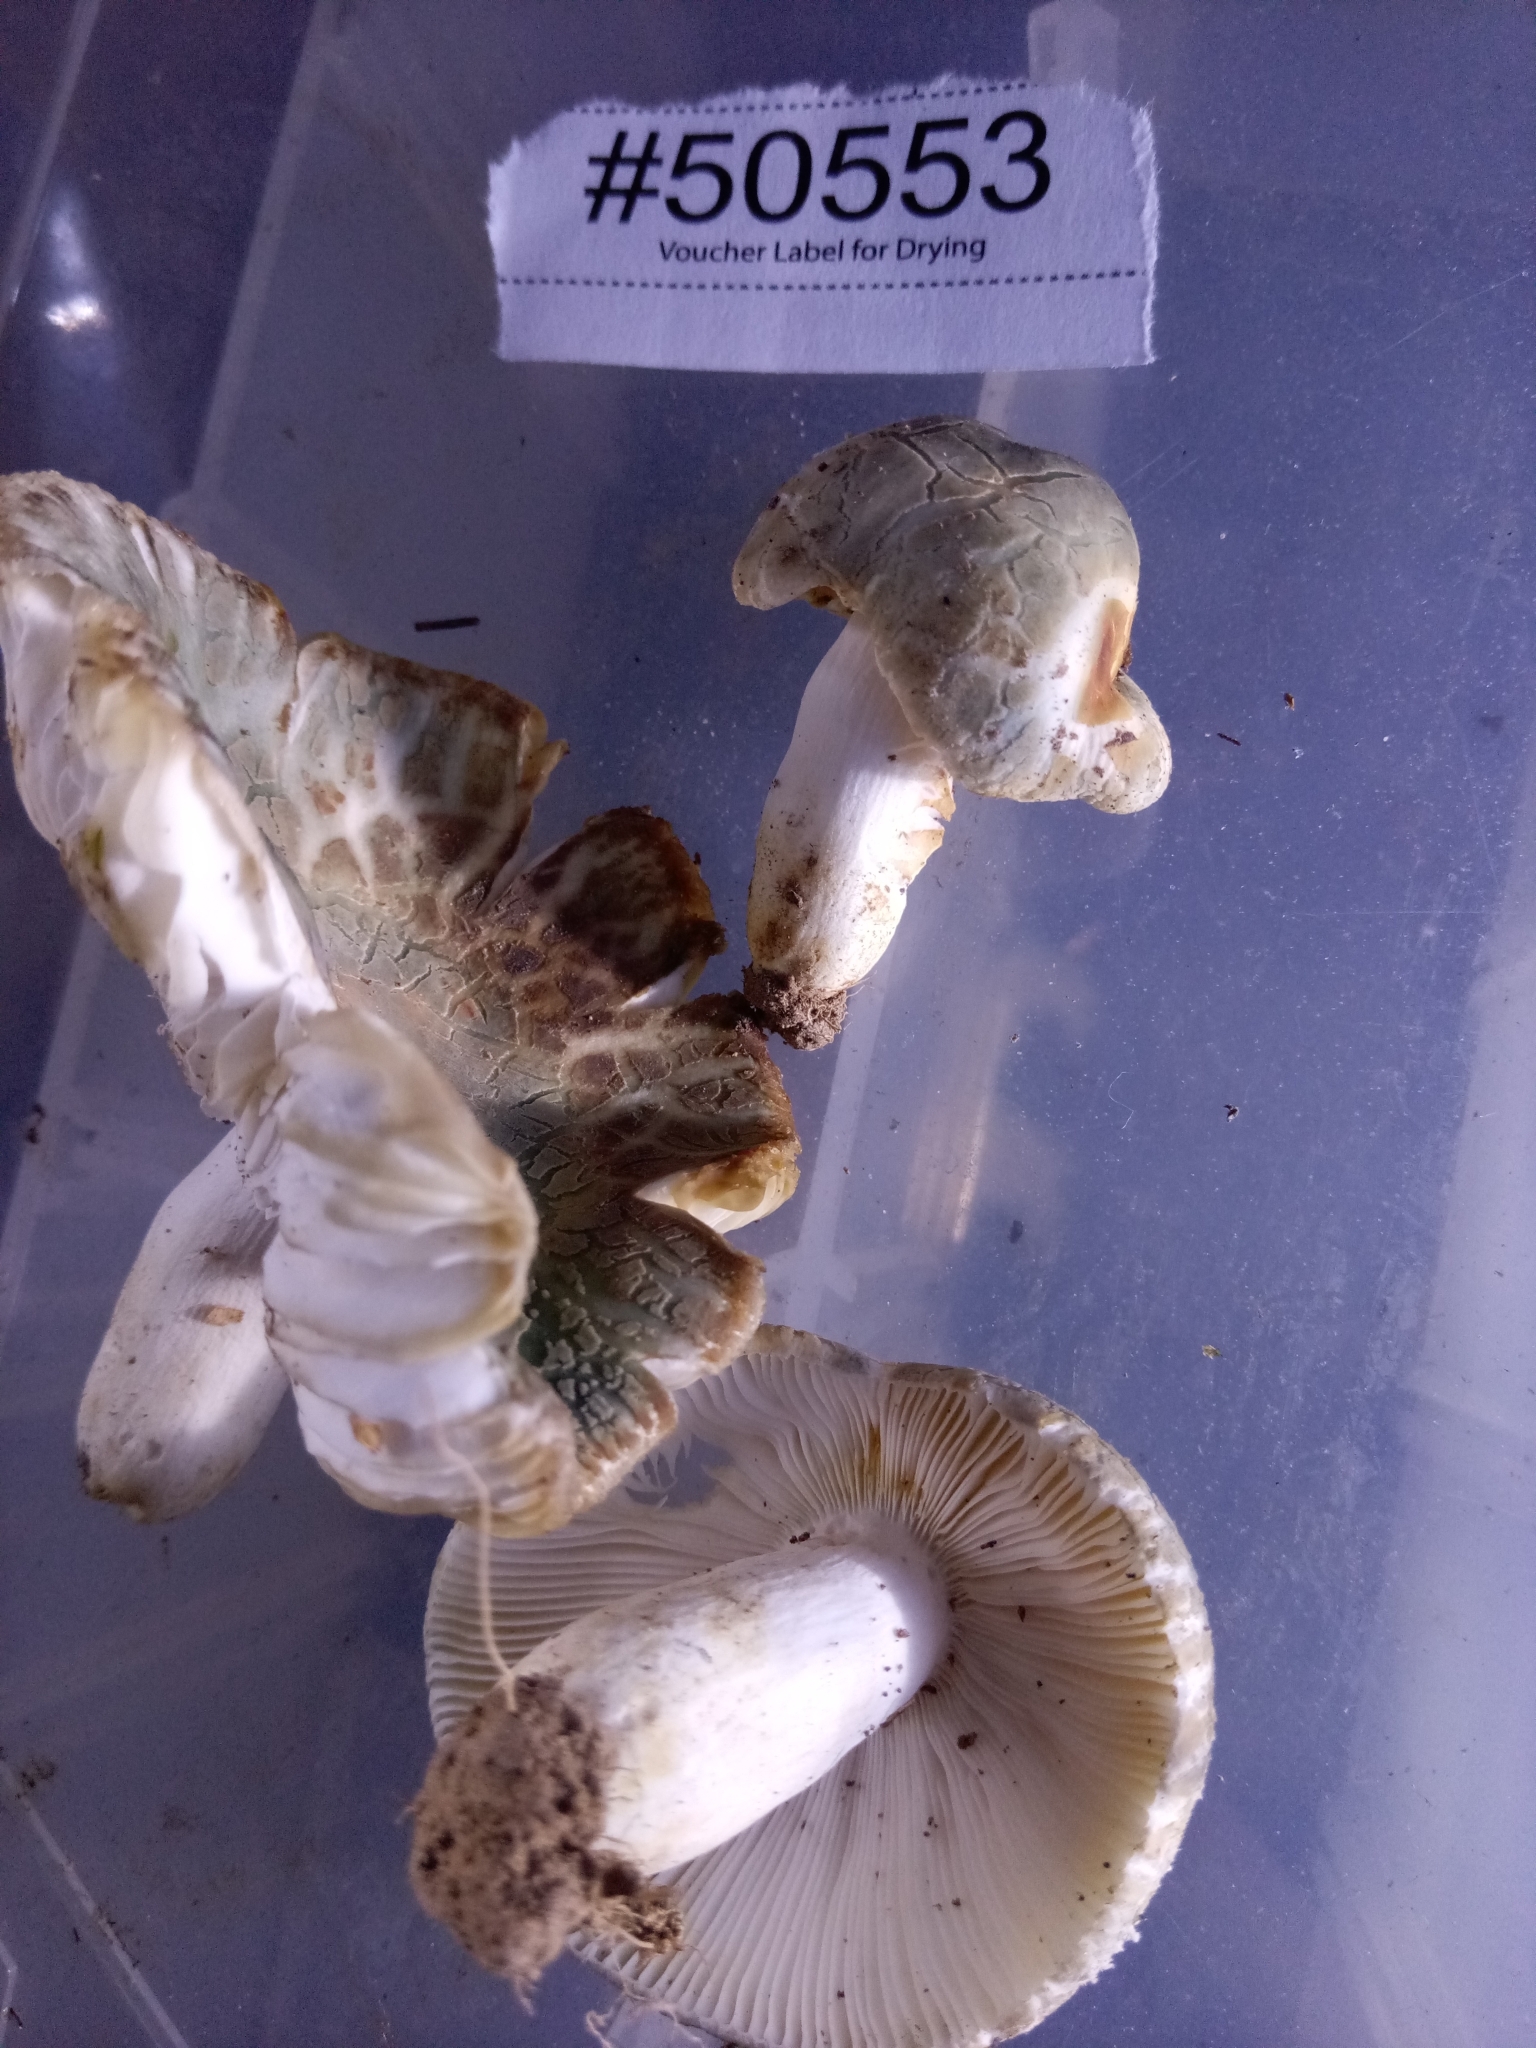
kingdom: Fungi
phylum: Basidiomycota
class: Agaricomycetes
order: Russulales
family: Russulaceae
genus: Russula
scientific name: Russula crustosa
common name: Green quilt russula
